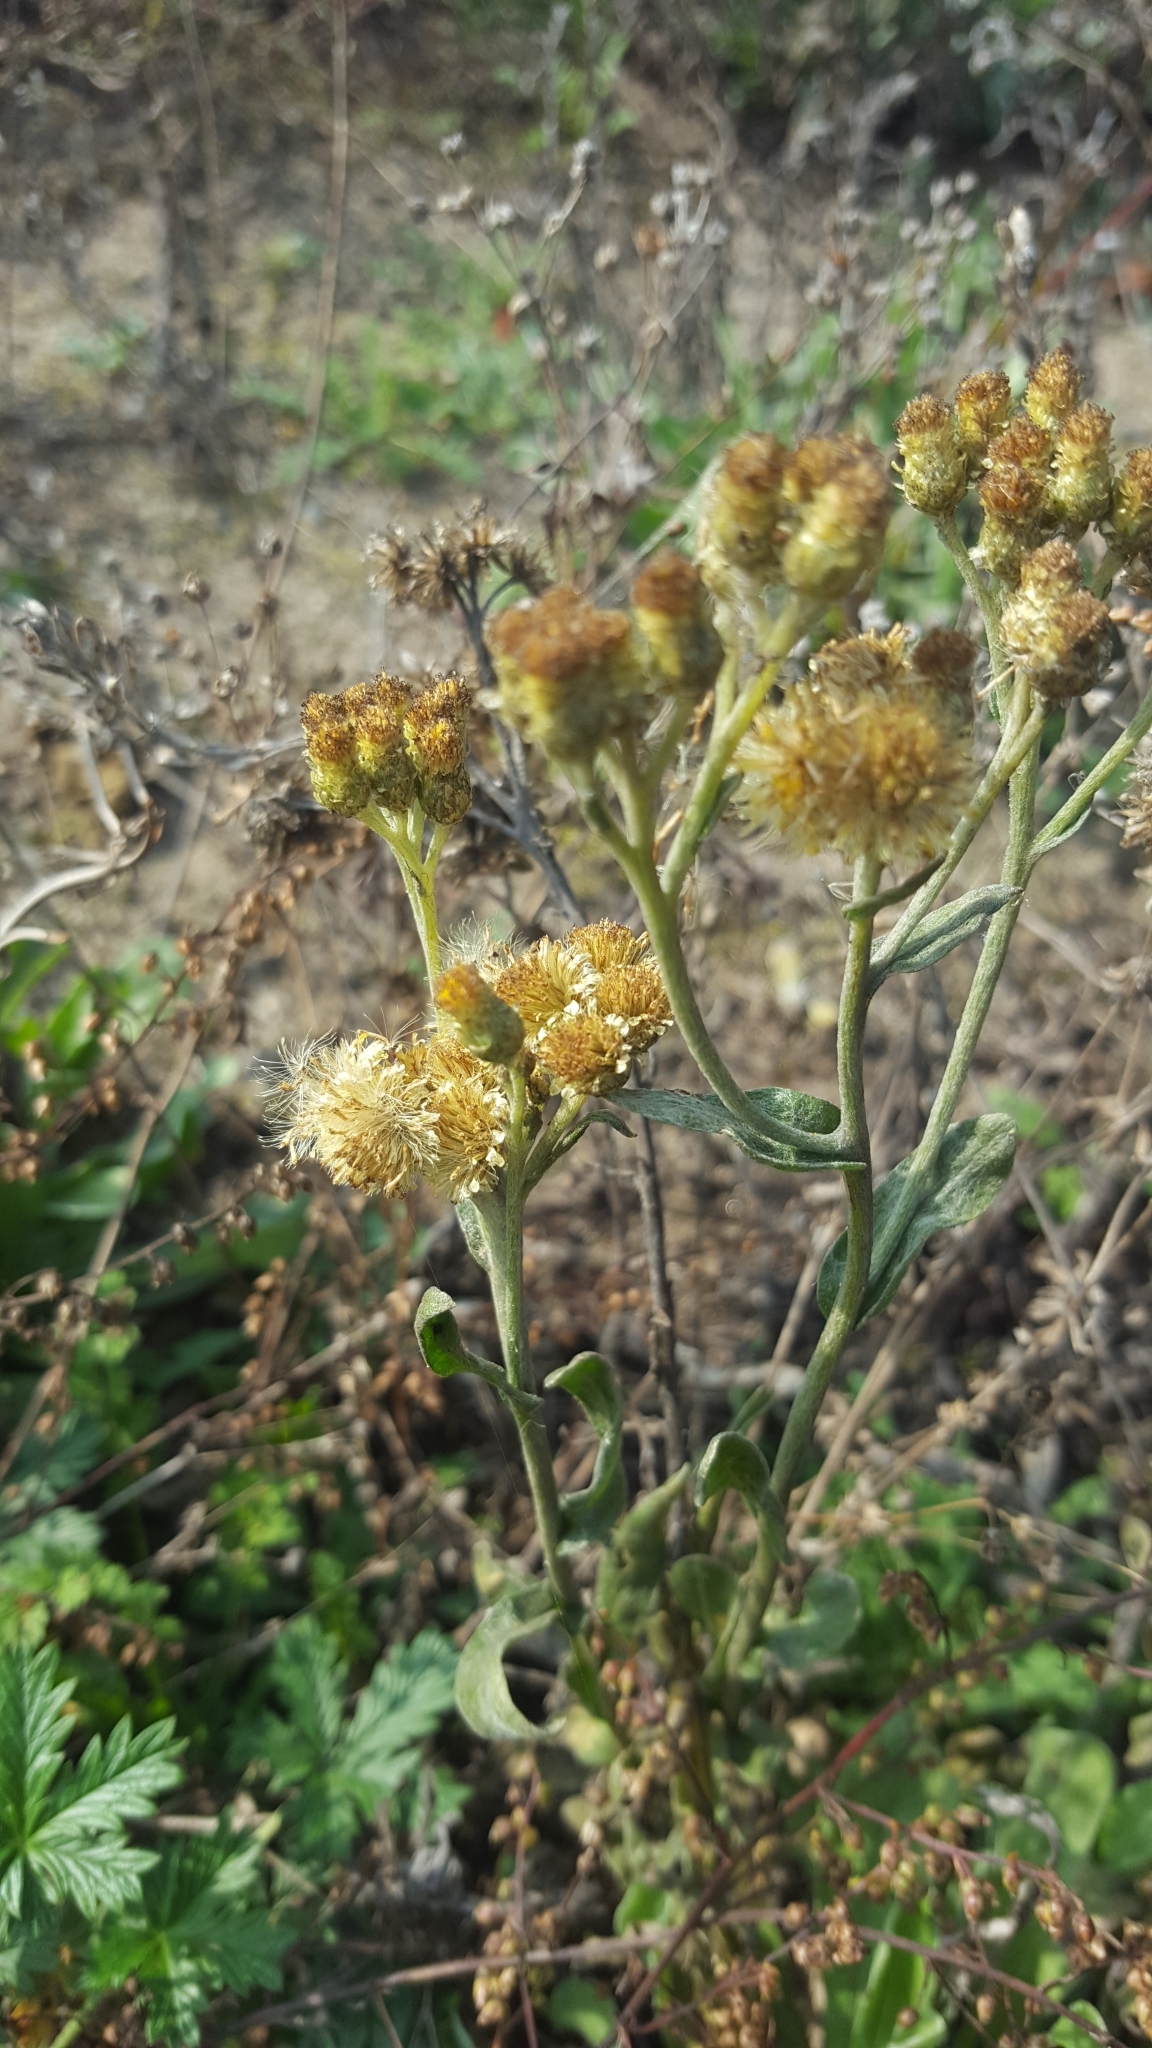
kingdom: Plantae
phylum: Tracheophyta
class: Magnoliopsida
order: Asterales
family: Asteraceae
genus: Helichrysum
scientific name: Helichrysum arenarium
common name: Strawflower
